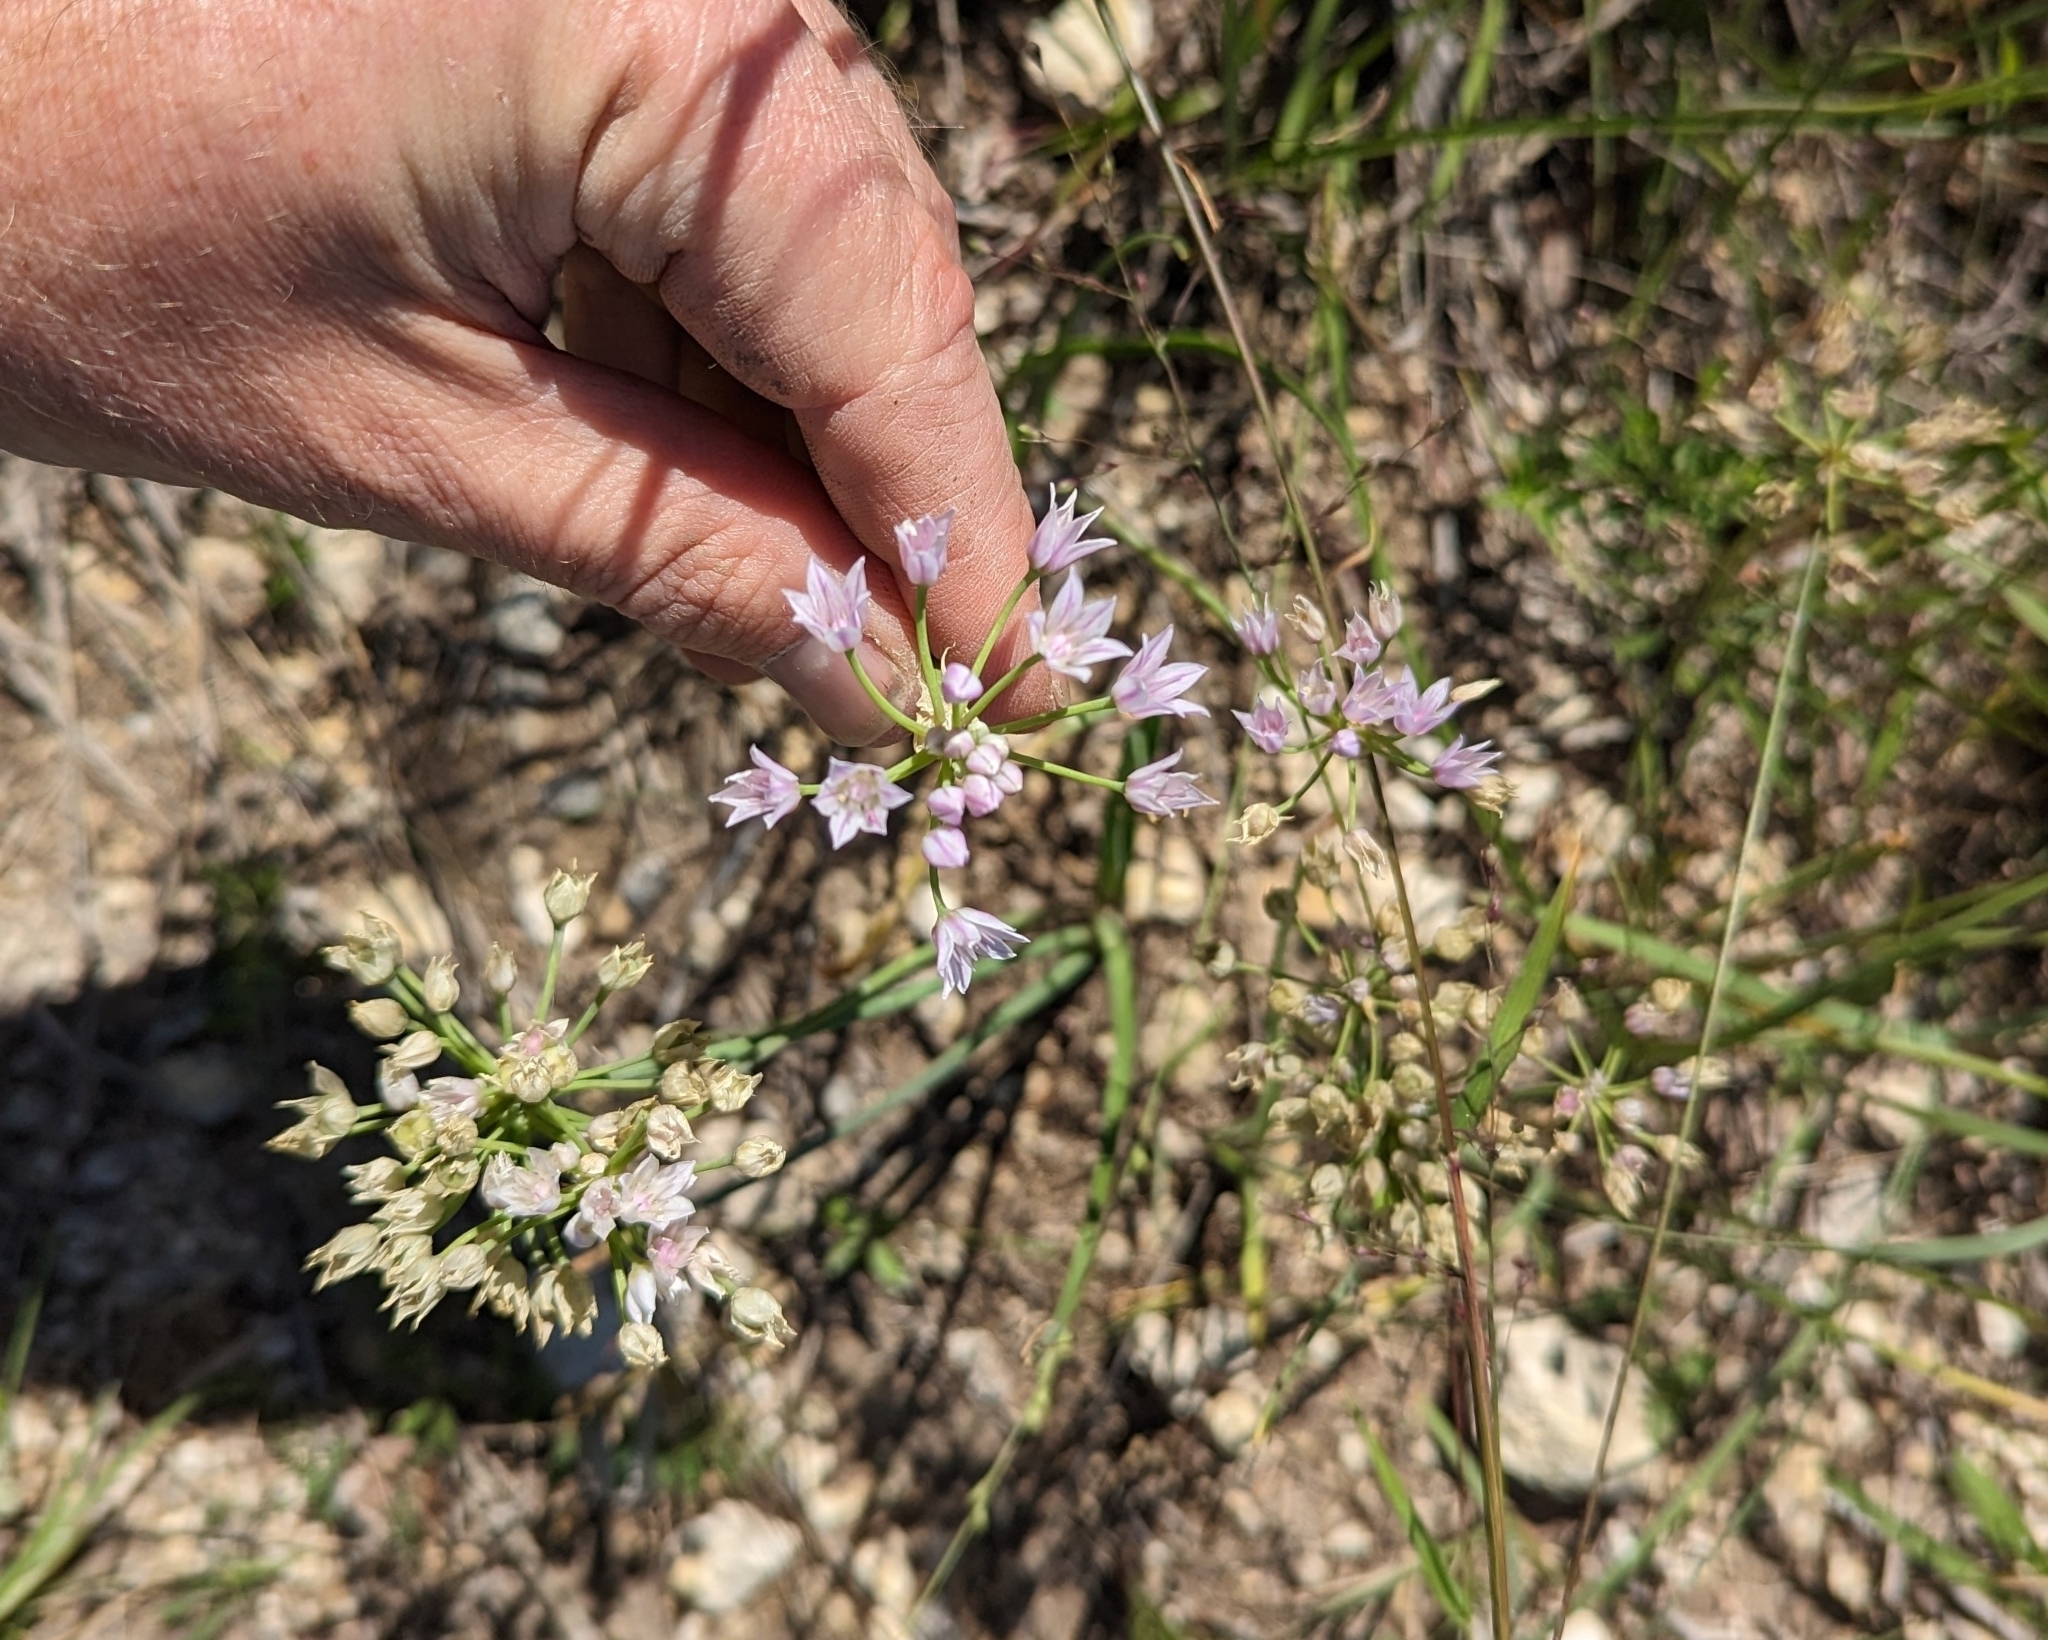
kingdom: Plantae
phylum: Tracheophyta
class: Liliopsida
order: Asparagales
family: Amaryllidaceae
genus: Allium
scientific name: Allium drummondii
